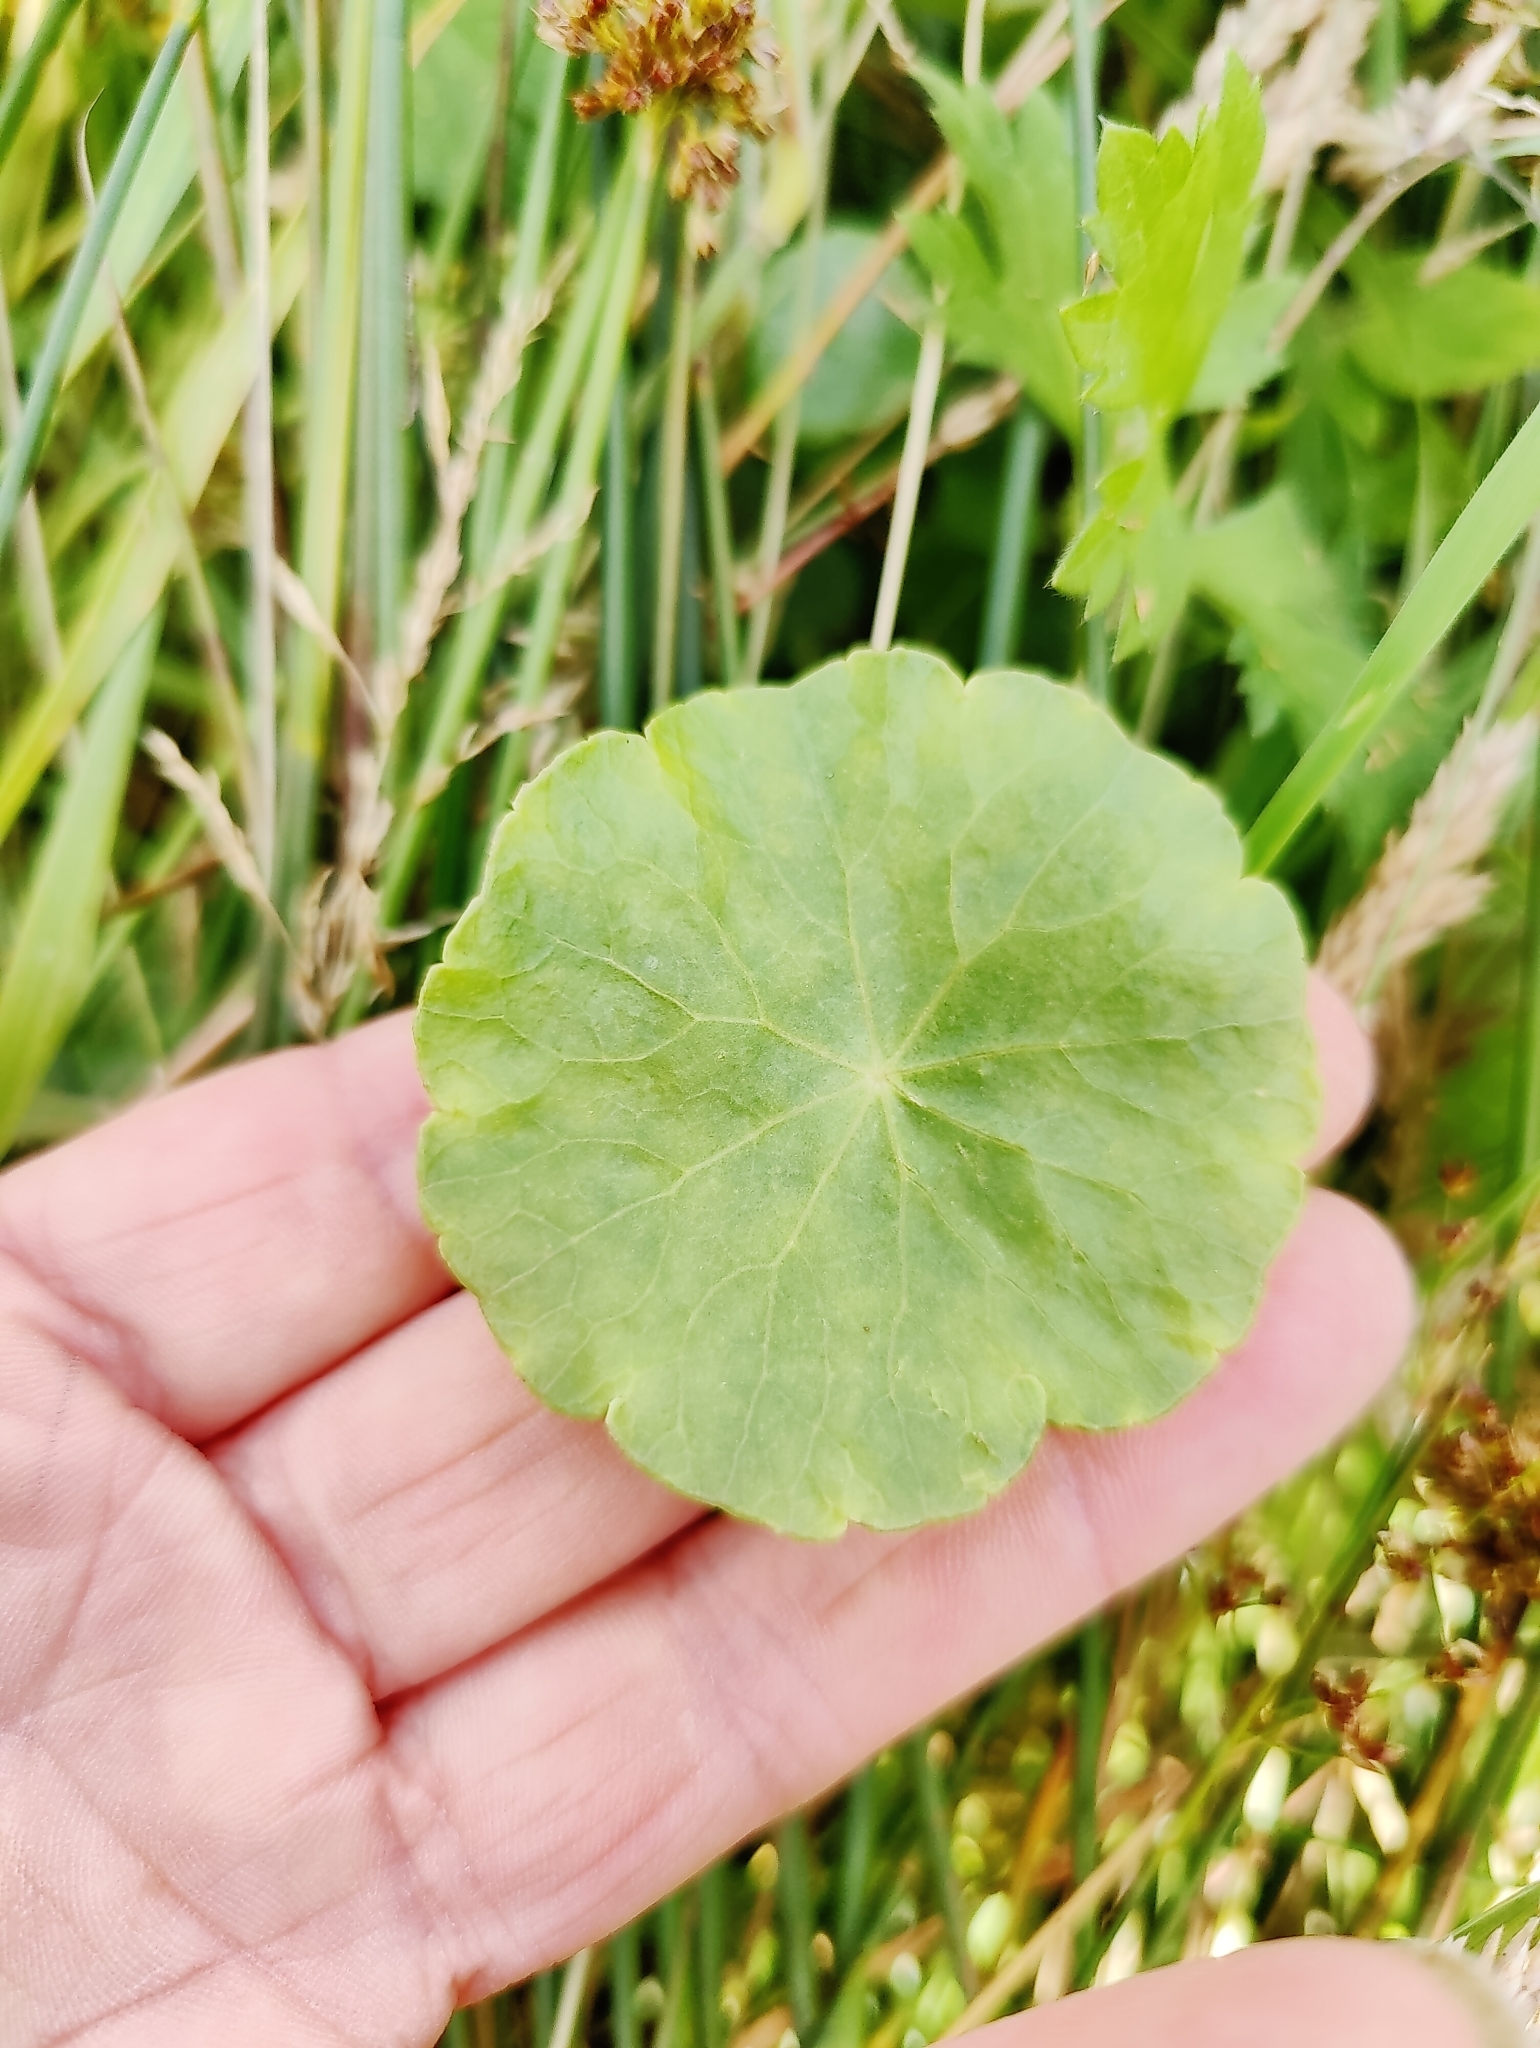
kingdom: Plantae
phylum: Tracheophyta
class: Magnoliopsida
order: Apiales
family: Araliaceae
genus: Hydrocotyle
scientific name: Hydrocotyle vulgaris
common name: Marsh pennywort
